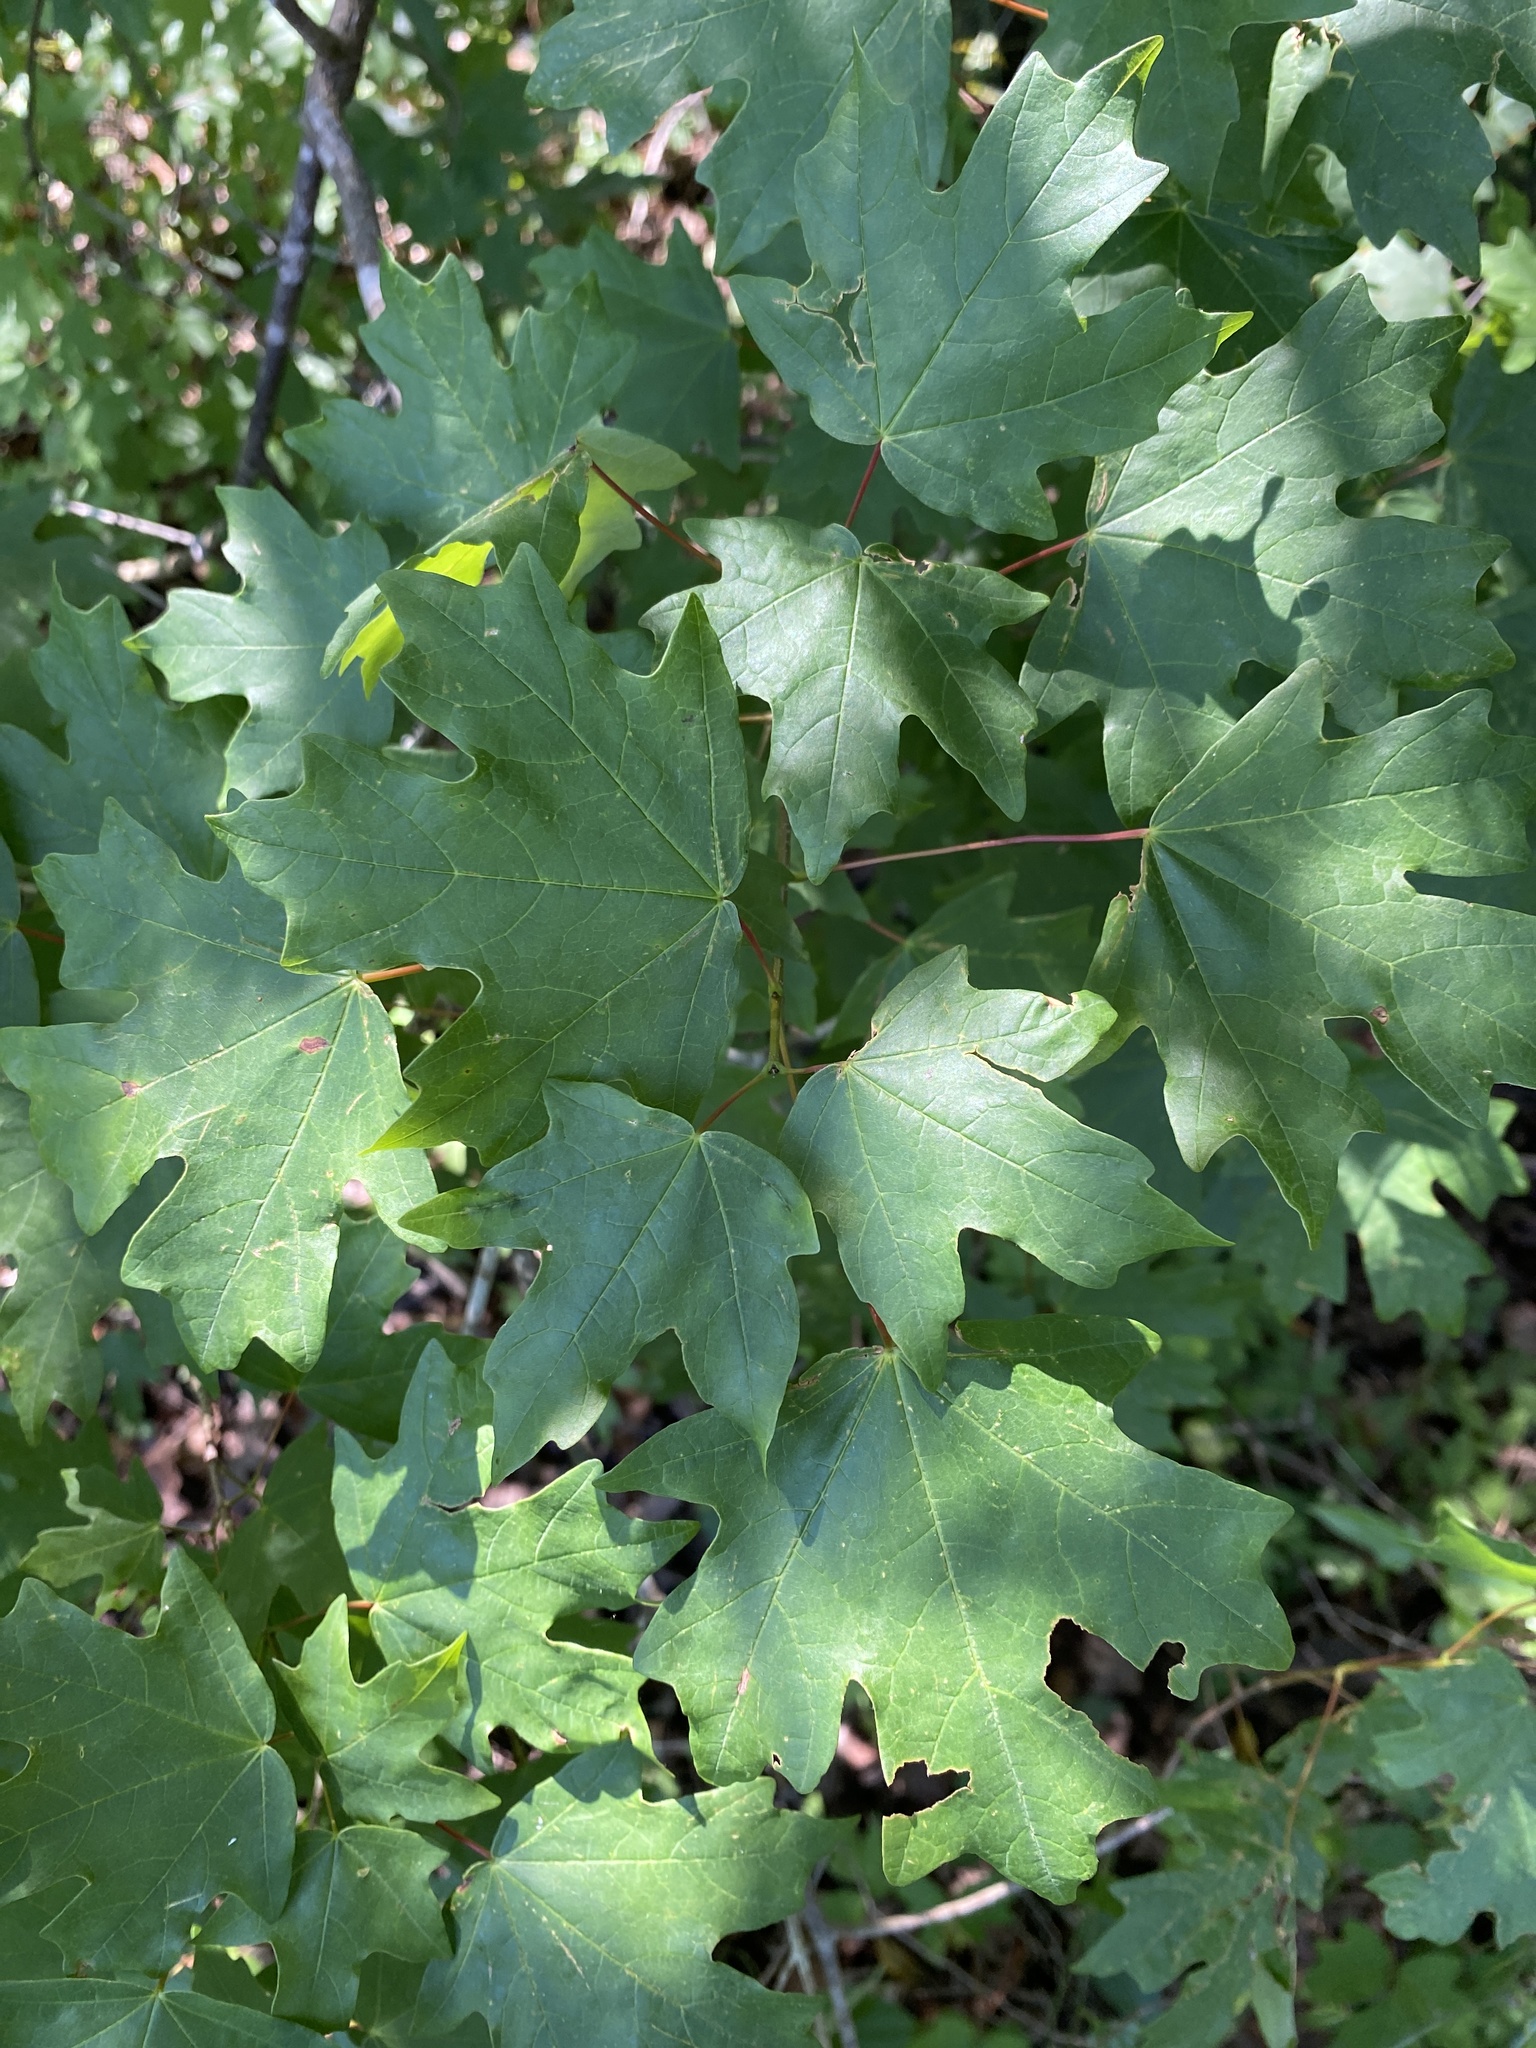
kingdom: Plantae
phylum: Tracheophyta
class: Magnoliopsida
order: Sapindales
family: Sapindaceae
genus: Acer
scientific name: Acer floridanum
